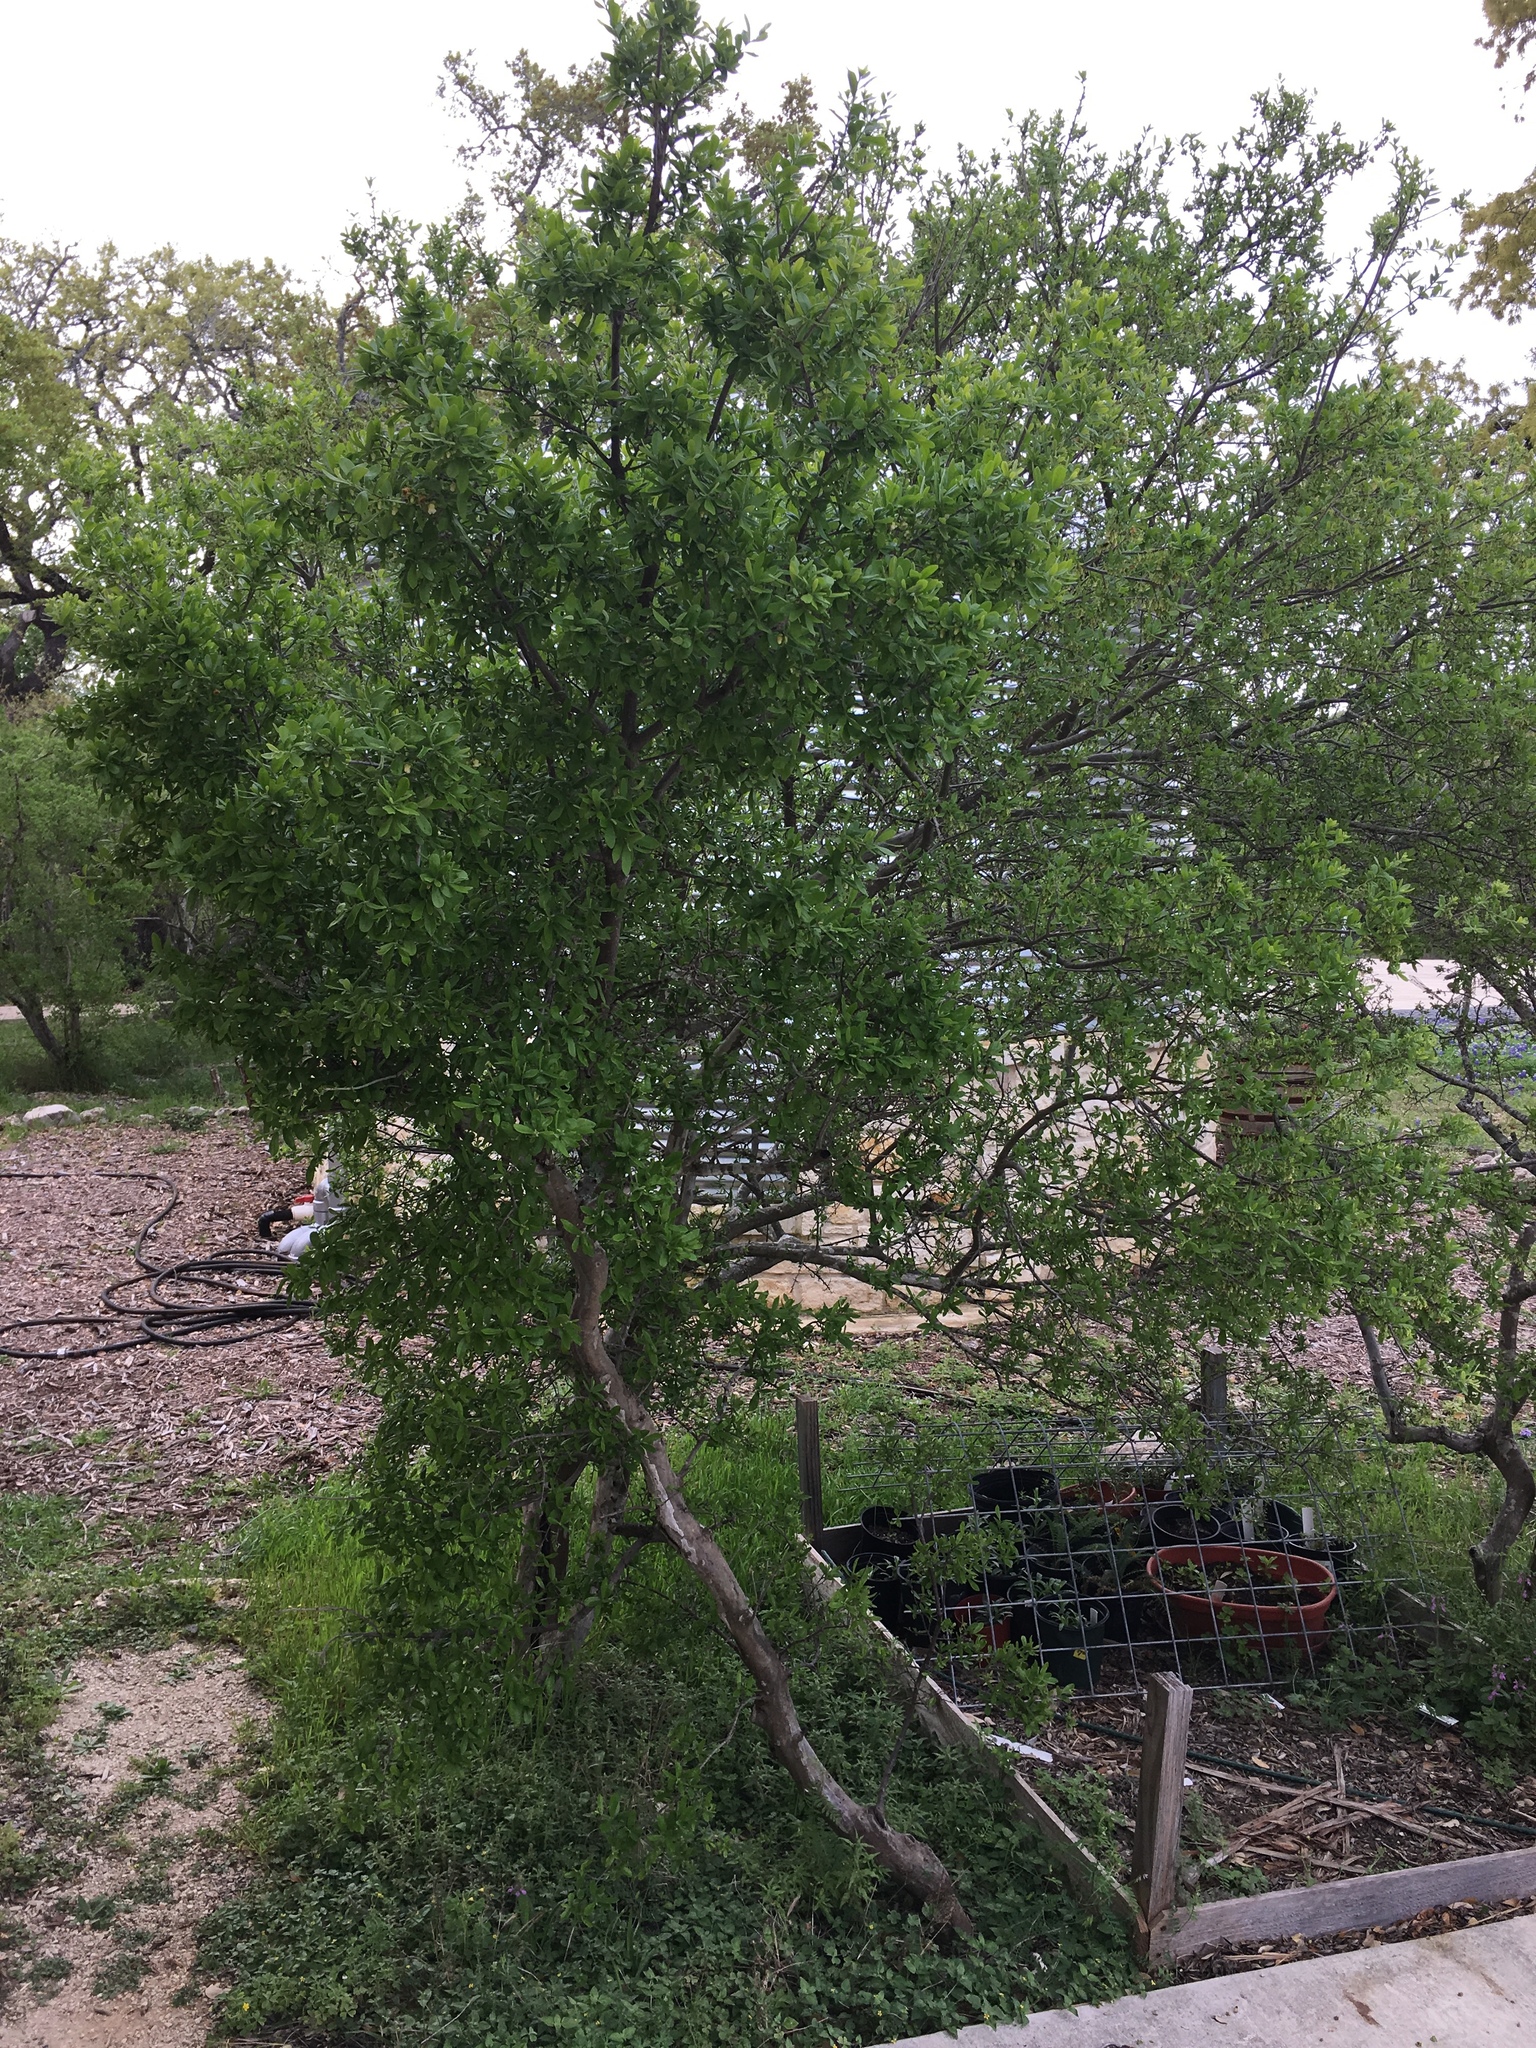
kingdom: Plantae
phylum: Tracheophyta
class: Magnoliopsida
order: Ericales
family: Ebenaceae
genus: Diospyros
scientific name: Diospyros texana
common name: Texas persimmon
